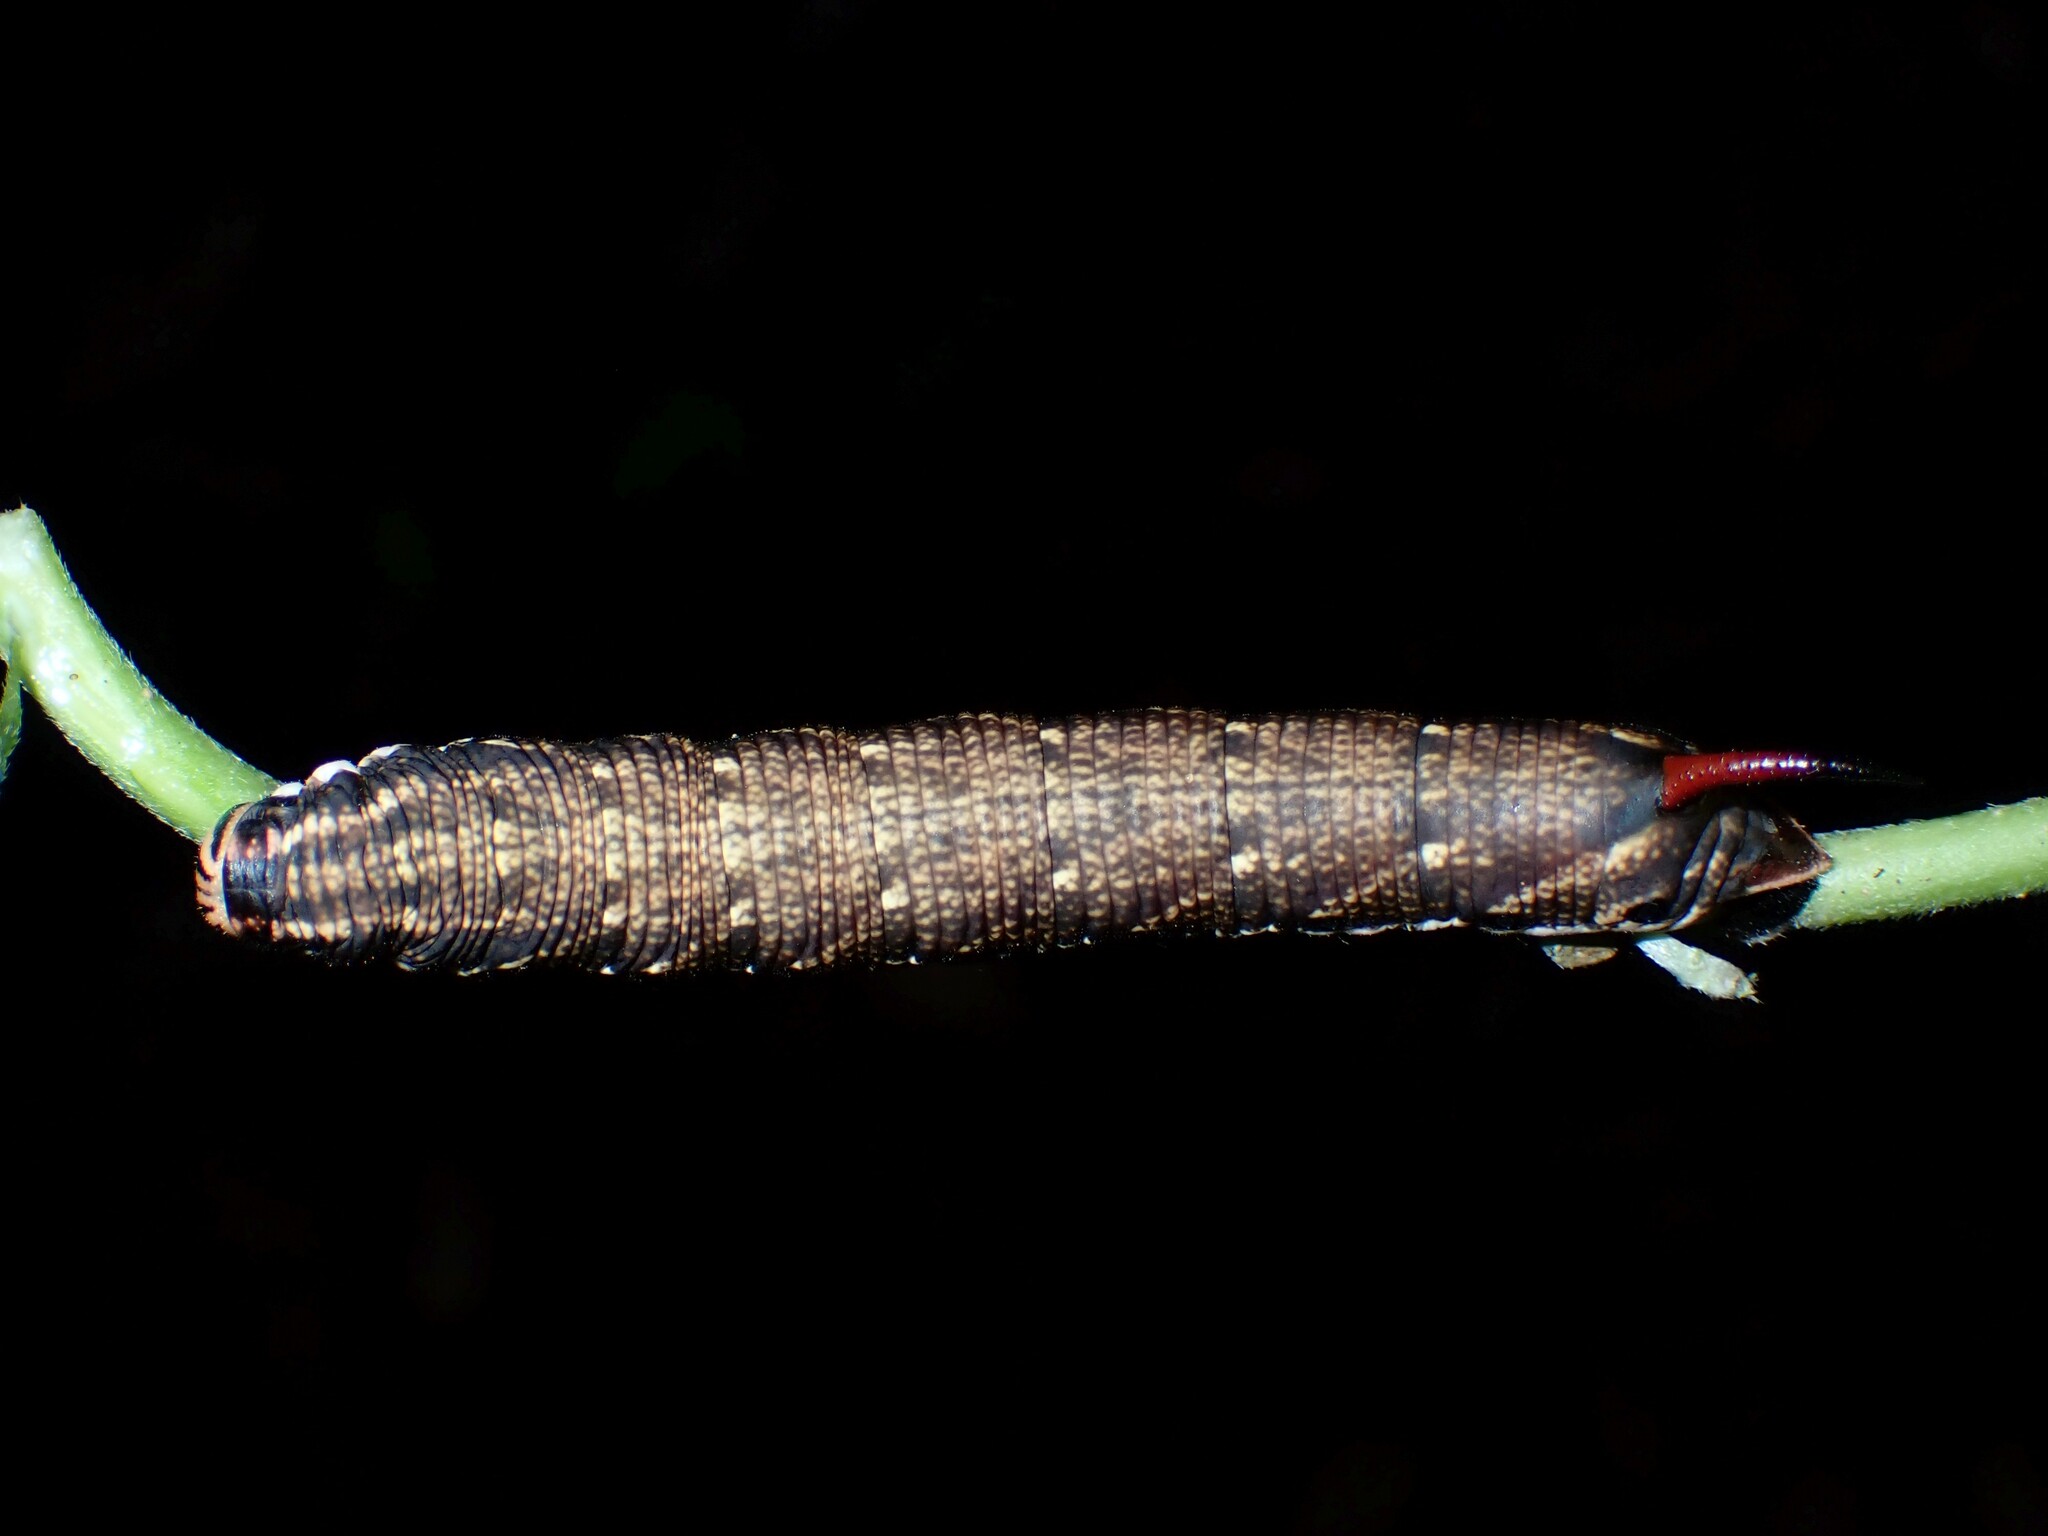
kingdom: Animalia
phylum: Arthropoda
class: Insecta
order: Lepidoptera
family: Sphingidae
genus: Agrius
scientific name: Agrius convolvuli
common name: Convolvulus hawkmoth
